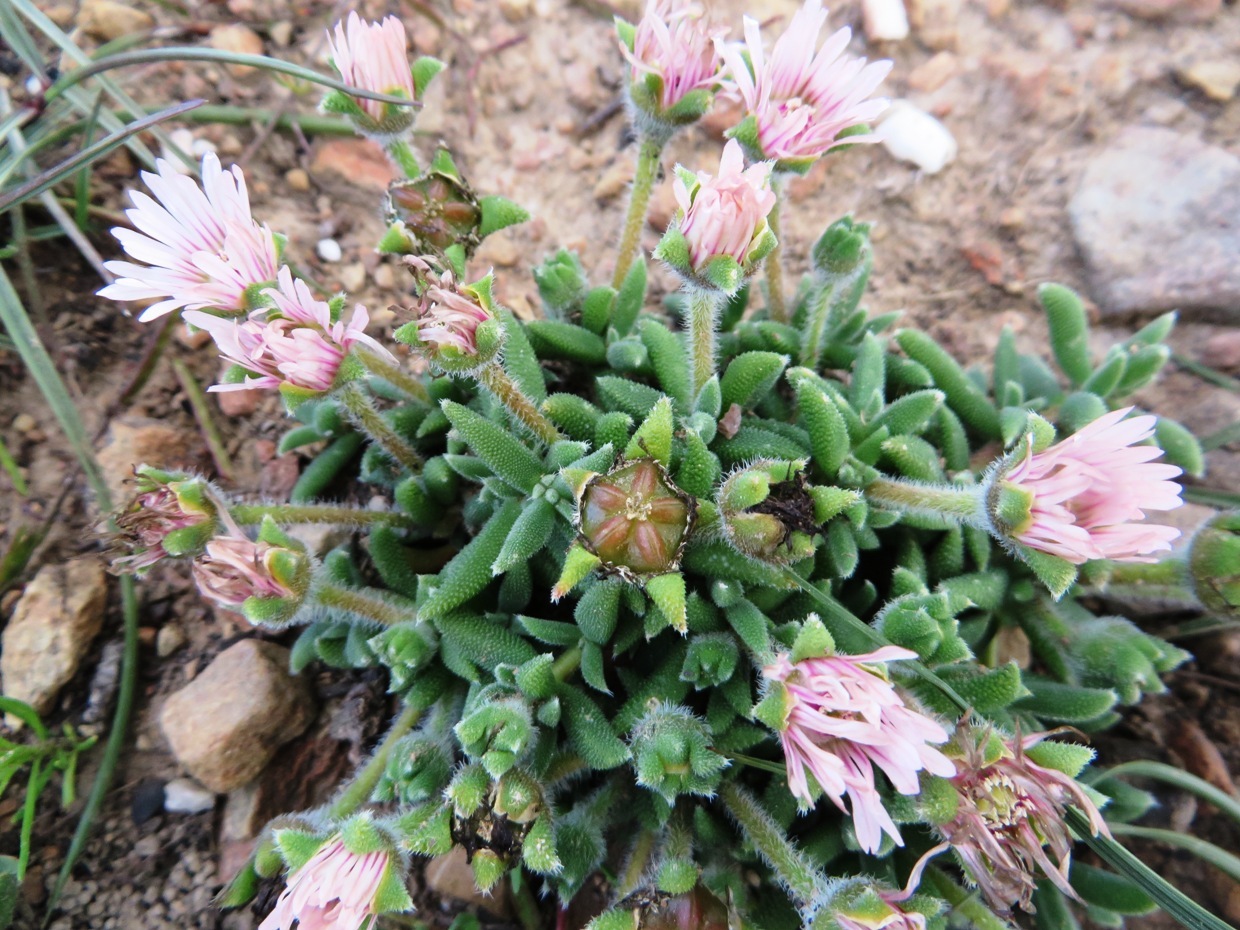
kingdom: Plantae
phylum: Tracheophyta
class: Magnoliopsida
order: Caryophyllales
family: Aizoaceae
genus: Trichodiadema
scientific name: Trichodiadema occidentale
